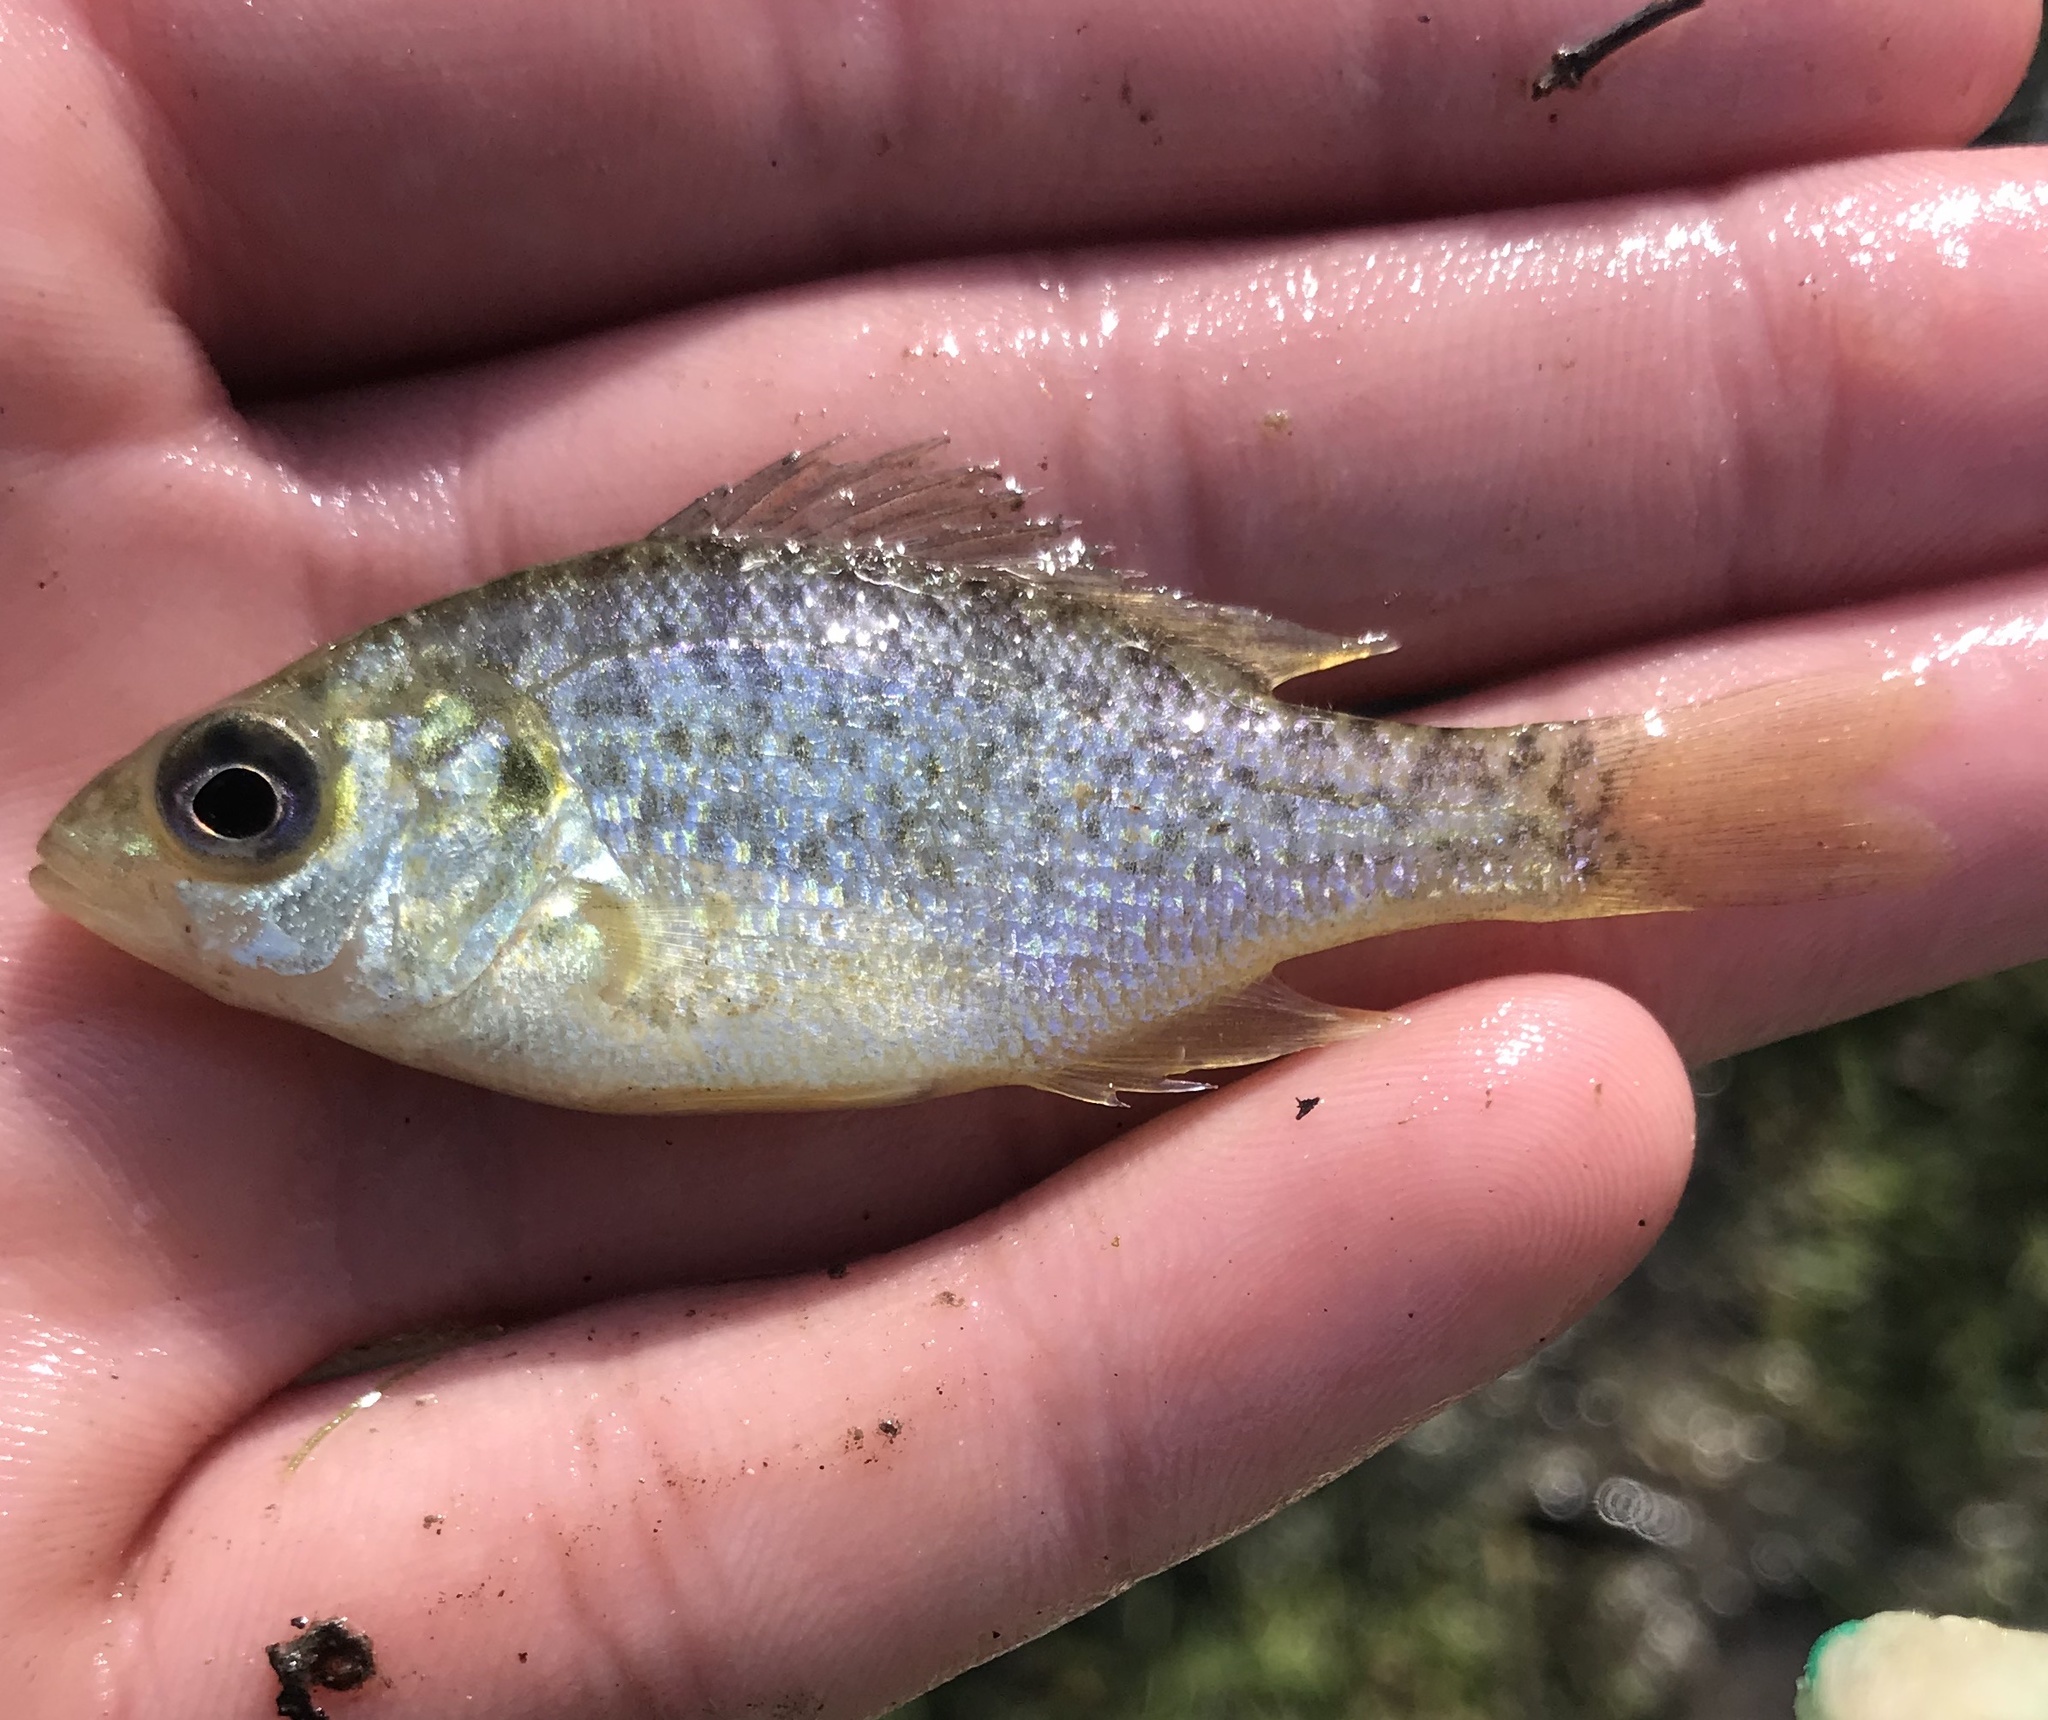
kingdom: Animalia
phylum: Chordata
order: Perciformes
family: Centrarchidae
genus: Lepomis
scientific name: Lepomis microlophus
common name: Redear sunfish
